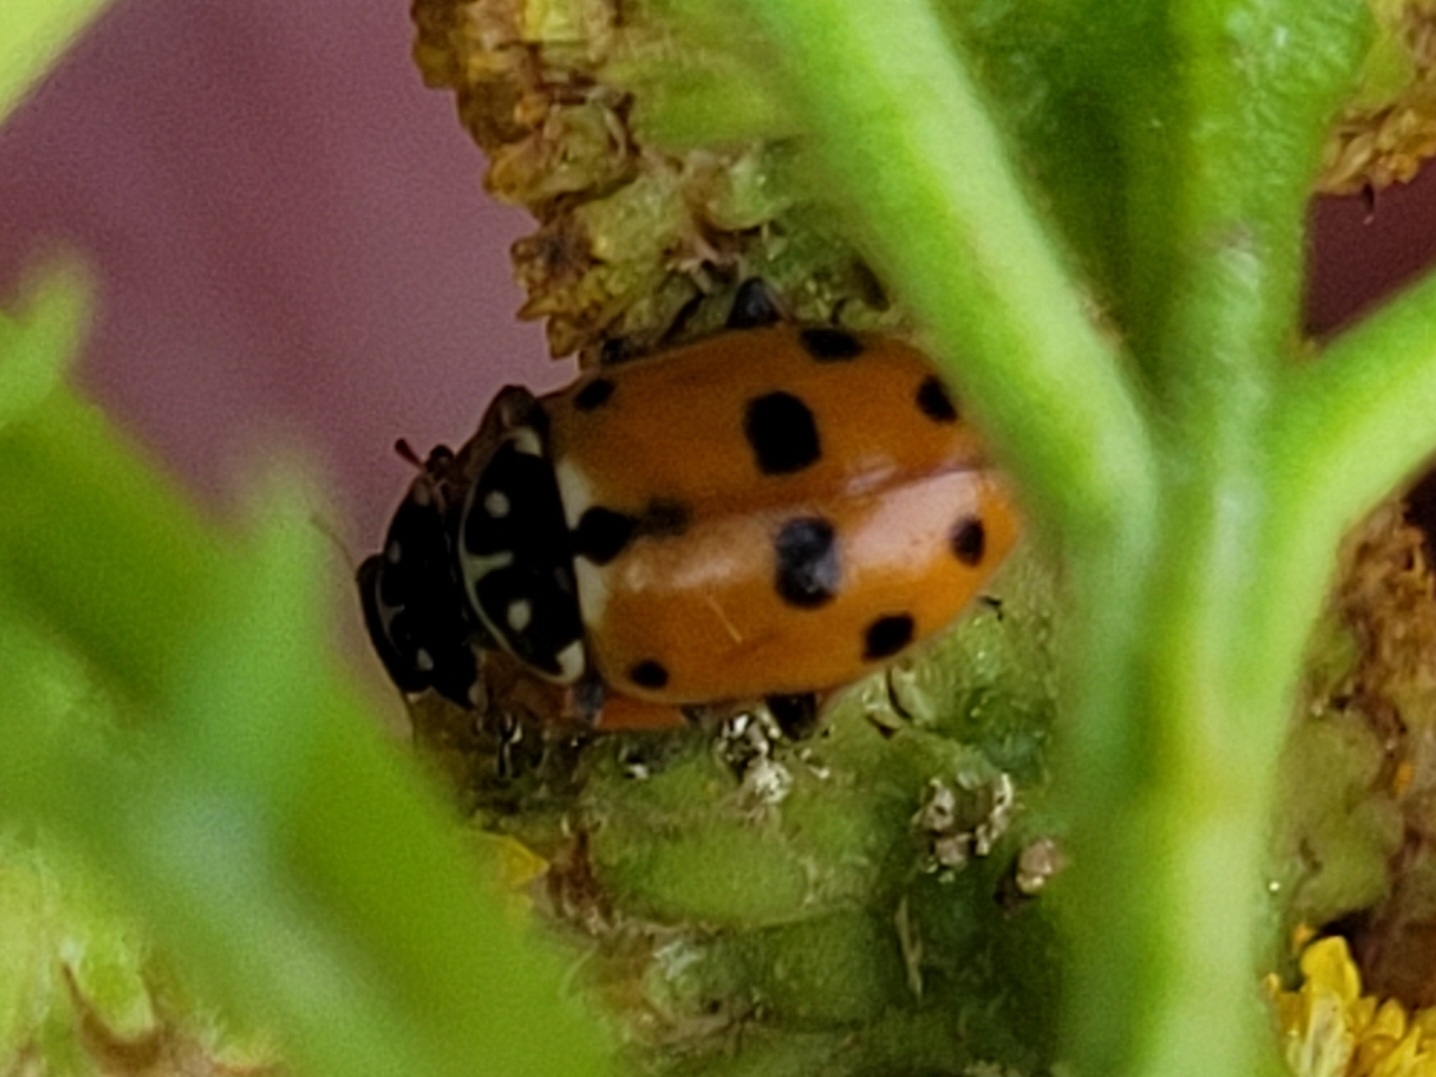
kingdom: Animalia
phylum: Arthropoda
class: Insecta
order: Coleoptera
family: Coccinellidae
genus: Hippodamia
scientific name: Hippodamia variegata
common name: Ladybird beetle
